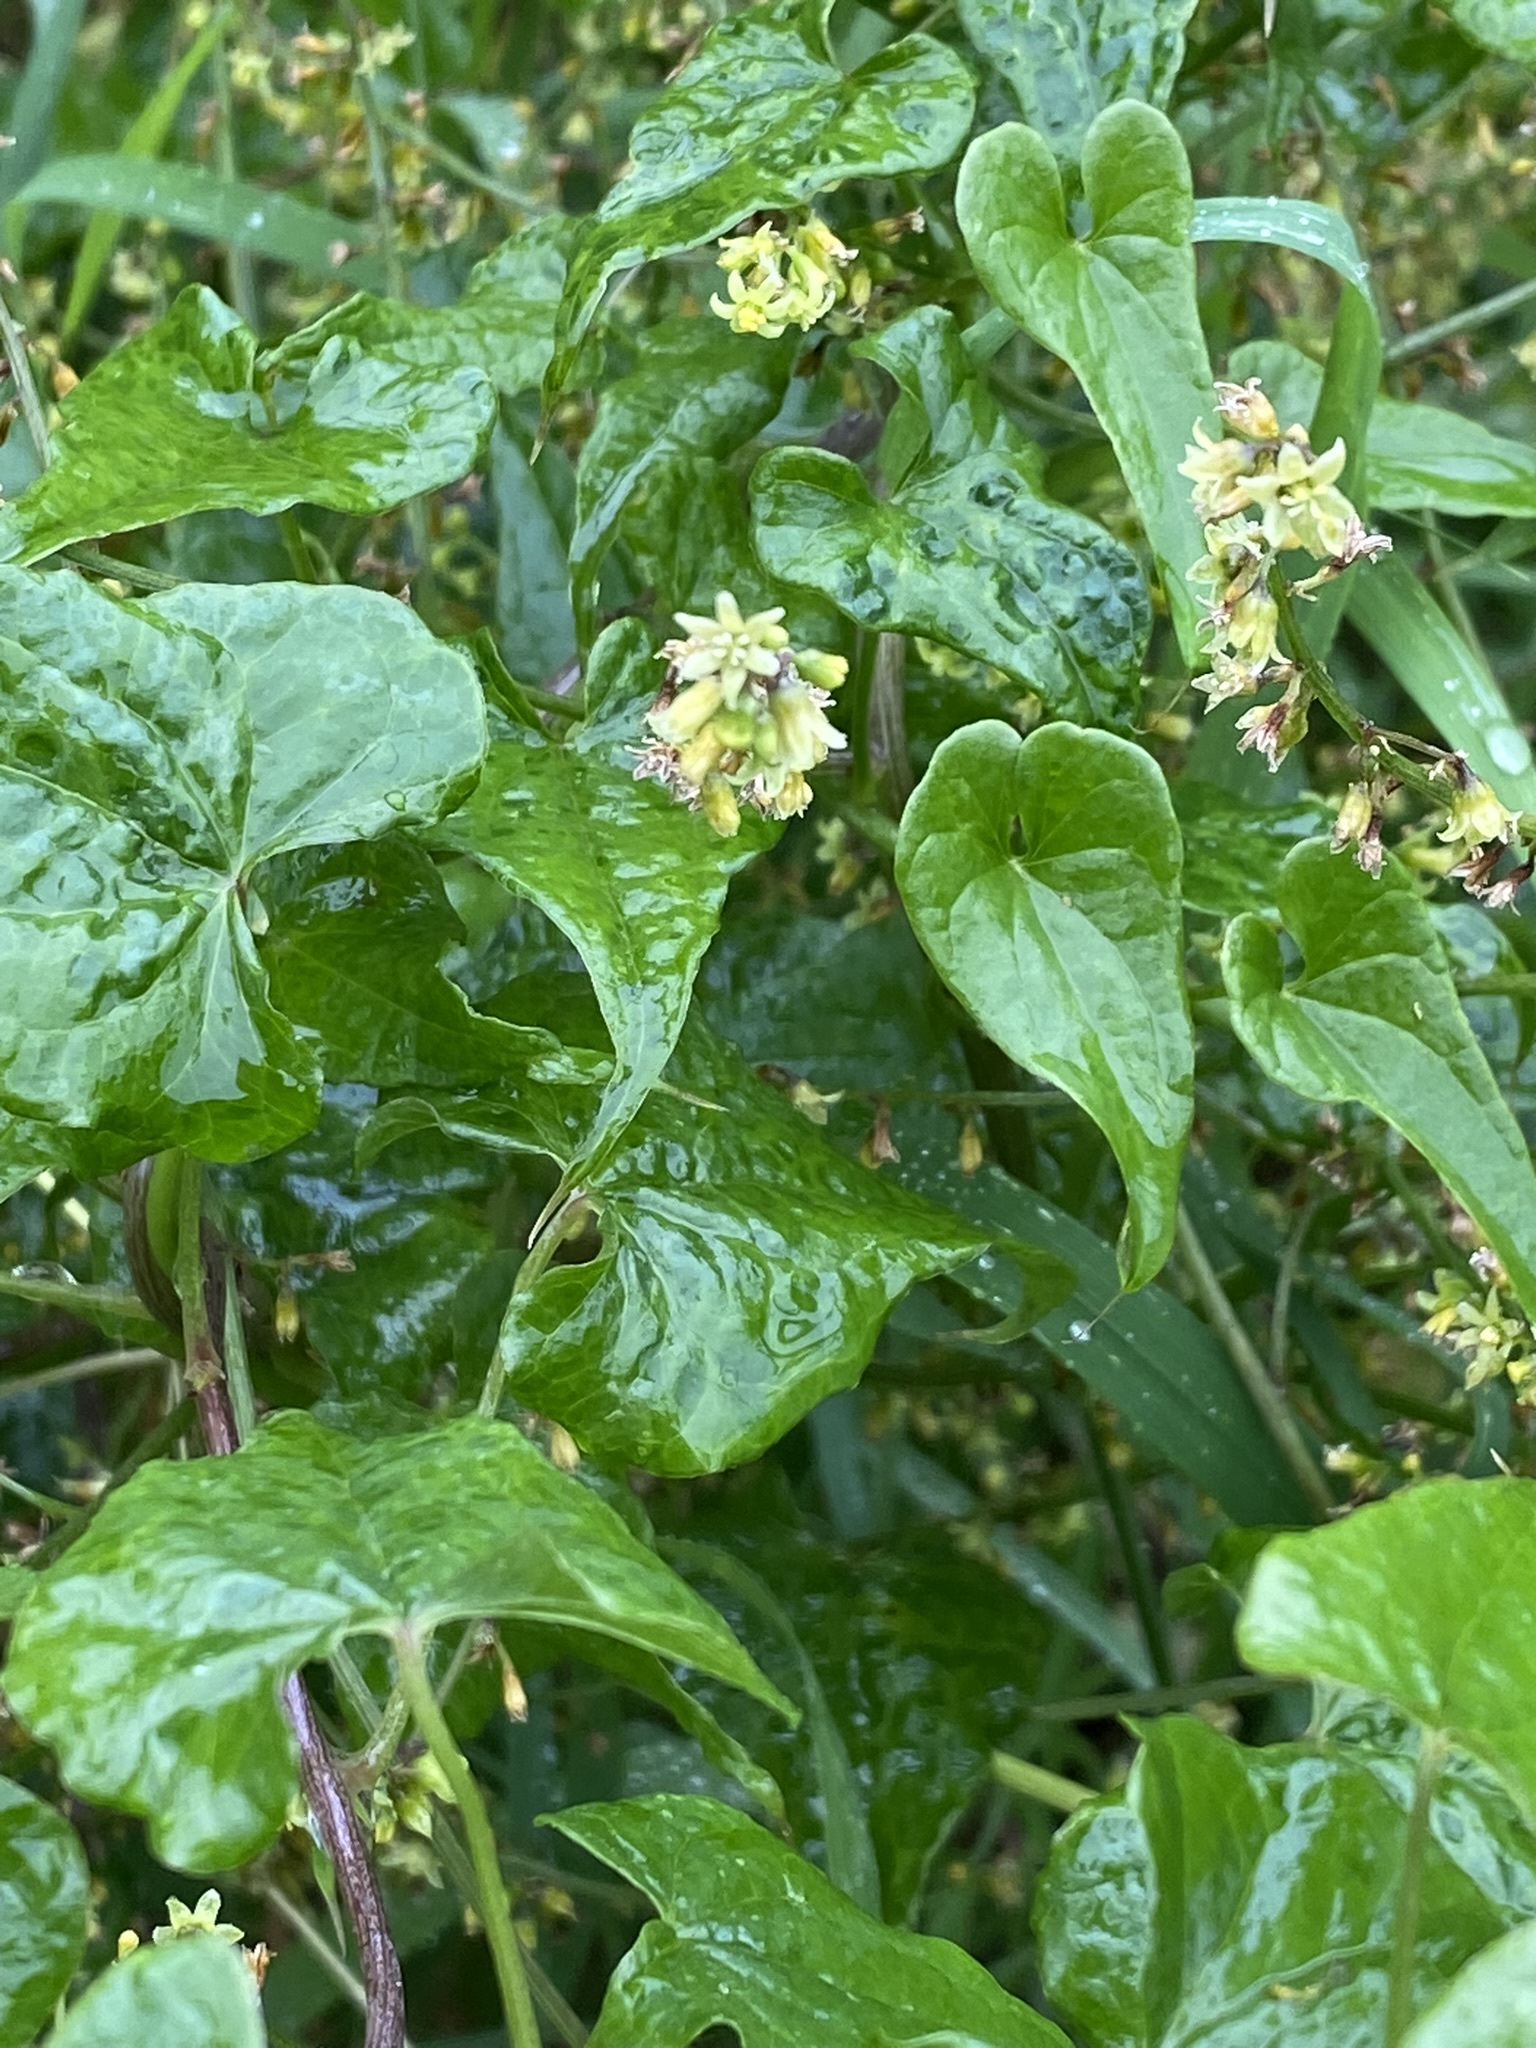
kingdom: Plantae
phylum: Tracheophyta
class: Liliopsida
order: Dioscoreales
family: Dioscoreaceae
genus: Dioscorea
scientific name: Dioscorea communis
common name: Black-bindweed
